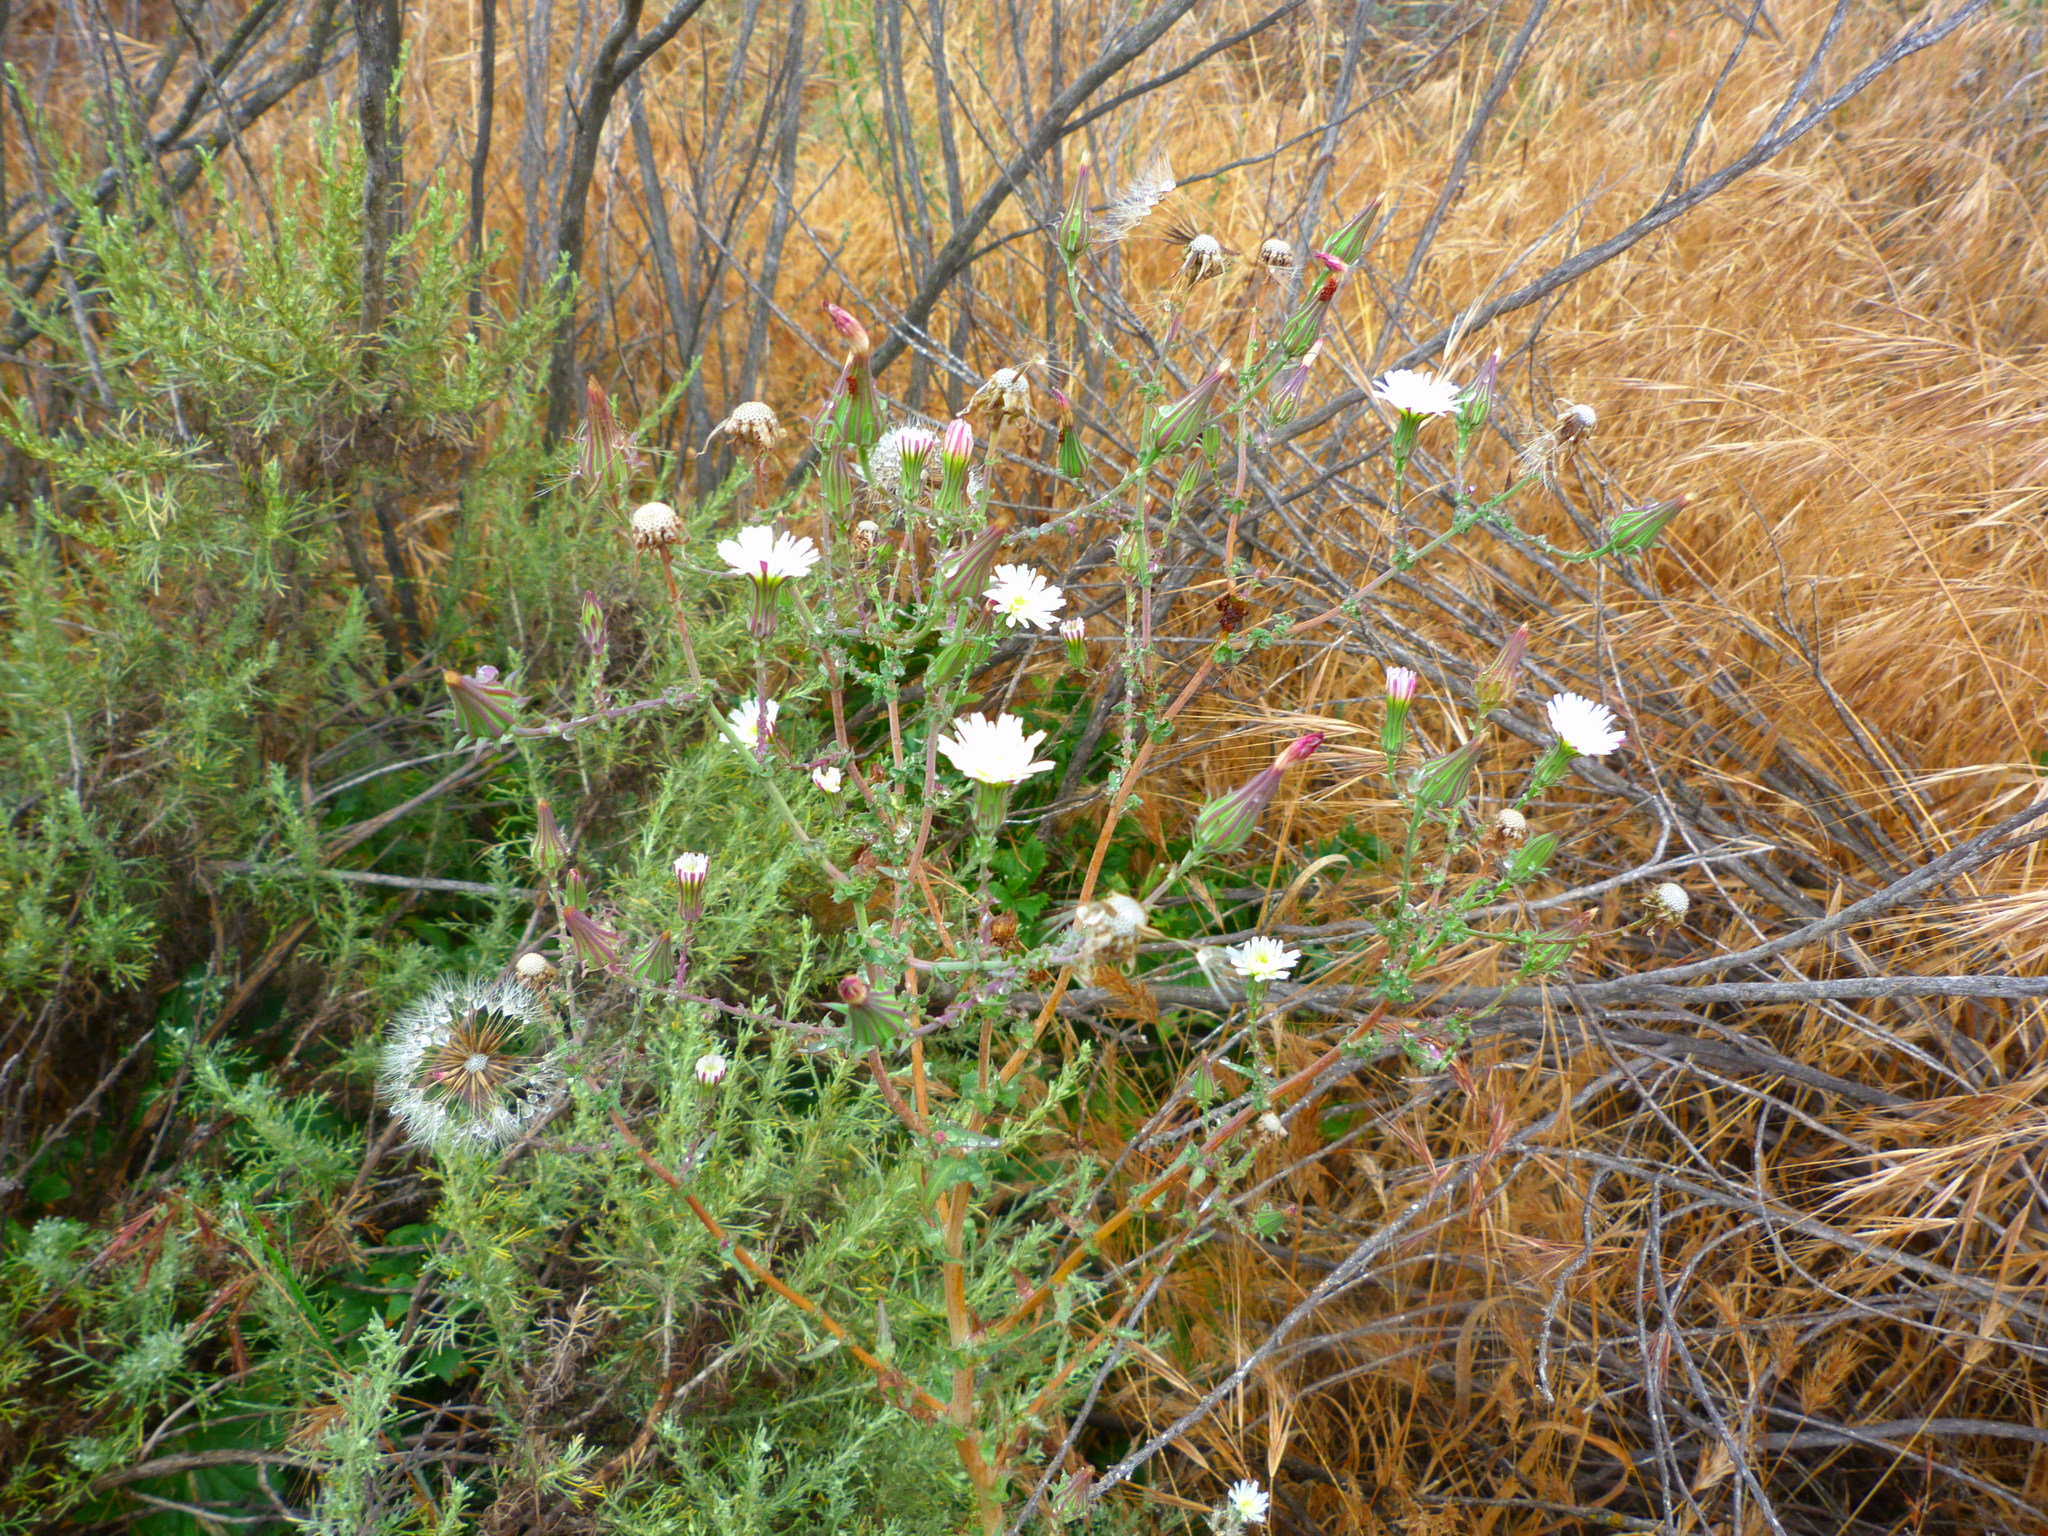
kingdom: Plantae
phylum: Tracheophyta
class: Magnoliopsida
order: Asterales
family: Asteraceae
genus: Rafinesquia
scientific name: Rafinesquia californica
